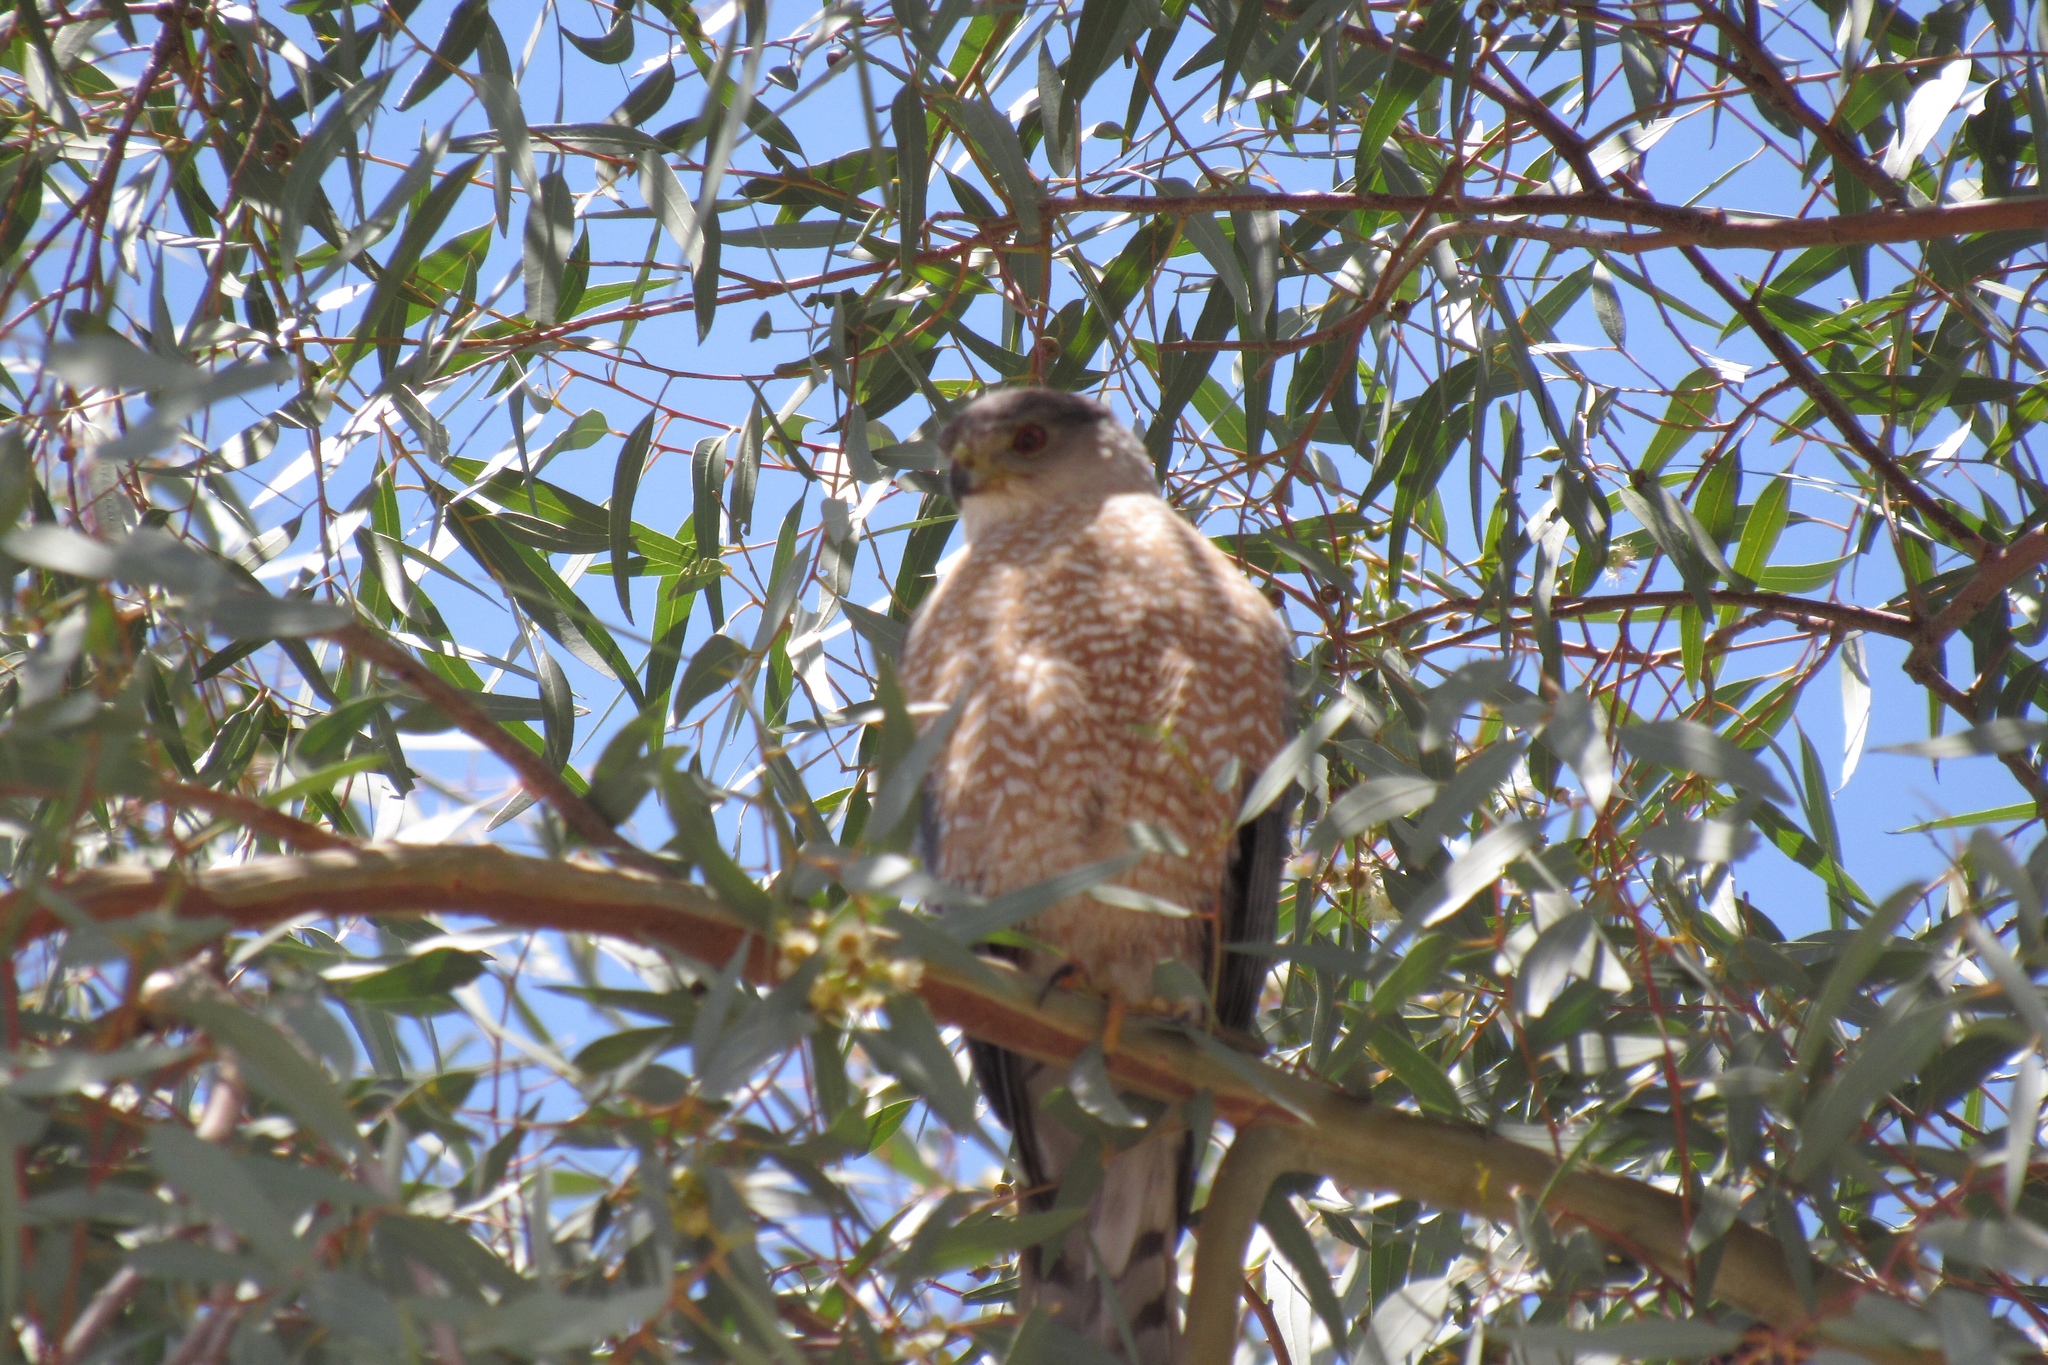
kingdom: Animalia
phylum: Chordata
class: Aves
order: Accipitriformes
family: Accipitridae
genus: Accipiter
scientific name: Accipiter cooperii
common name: Cooper's hawk
